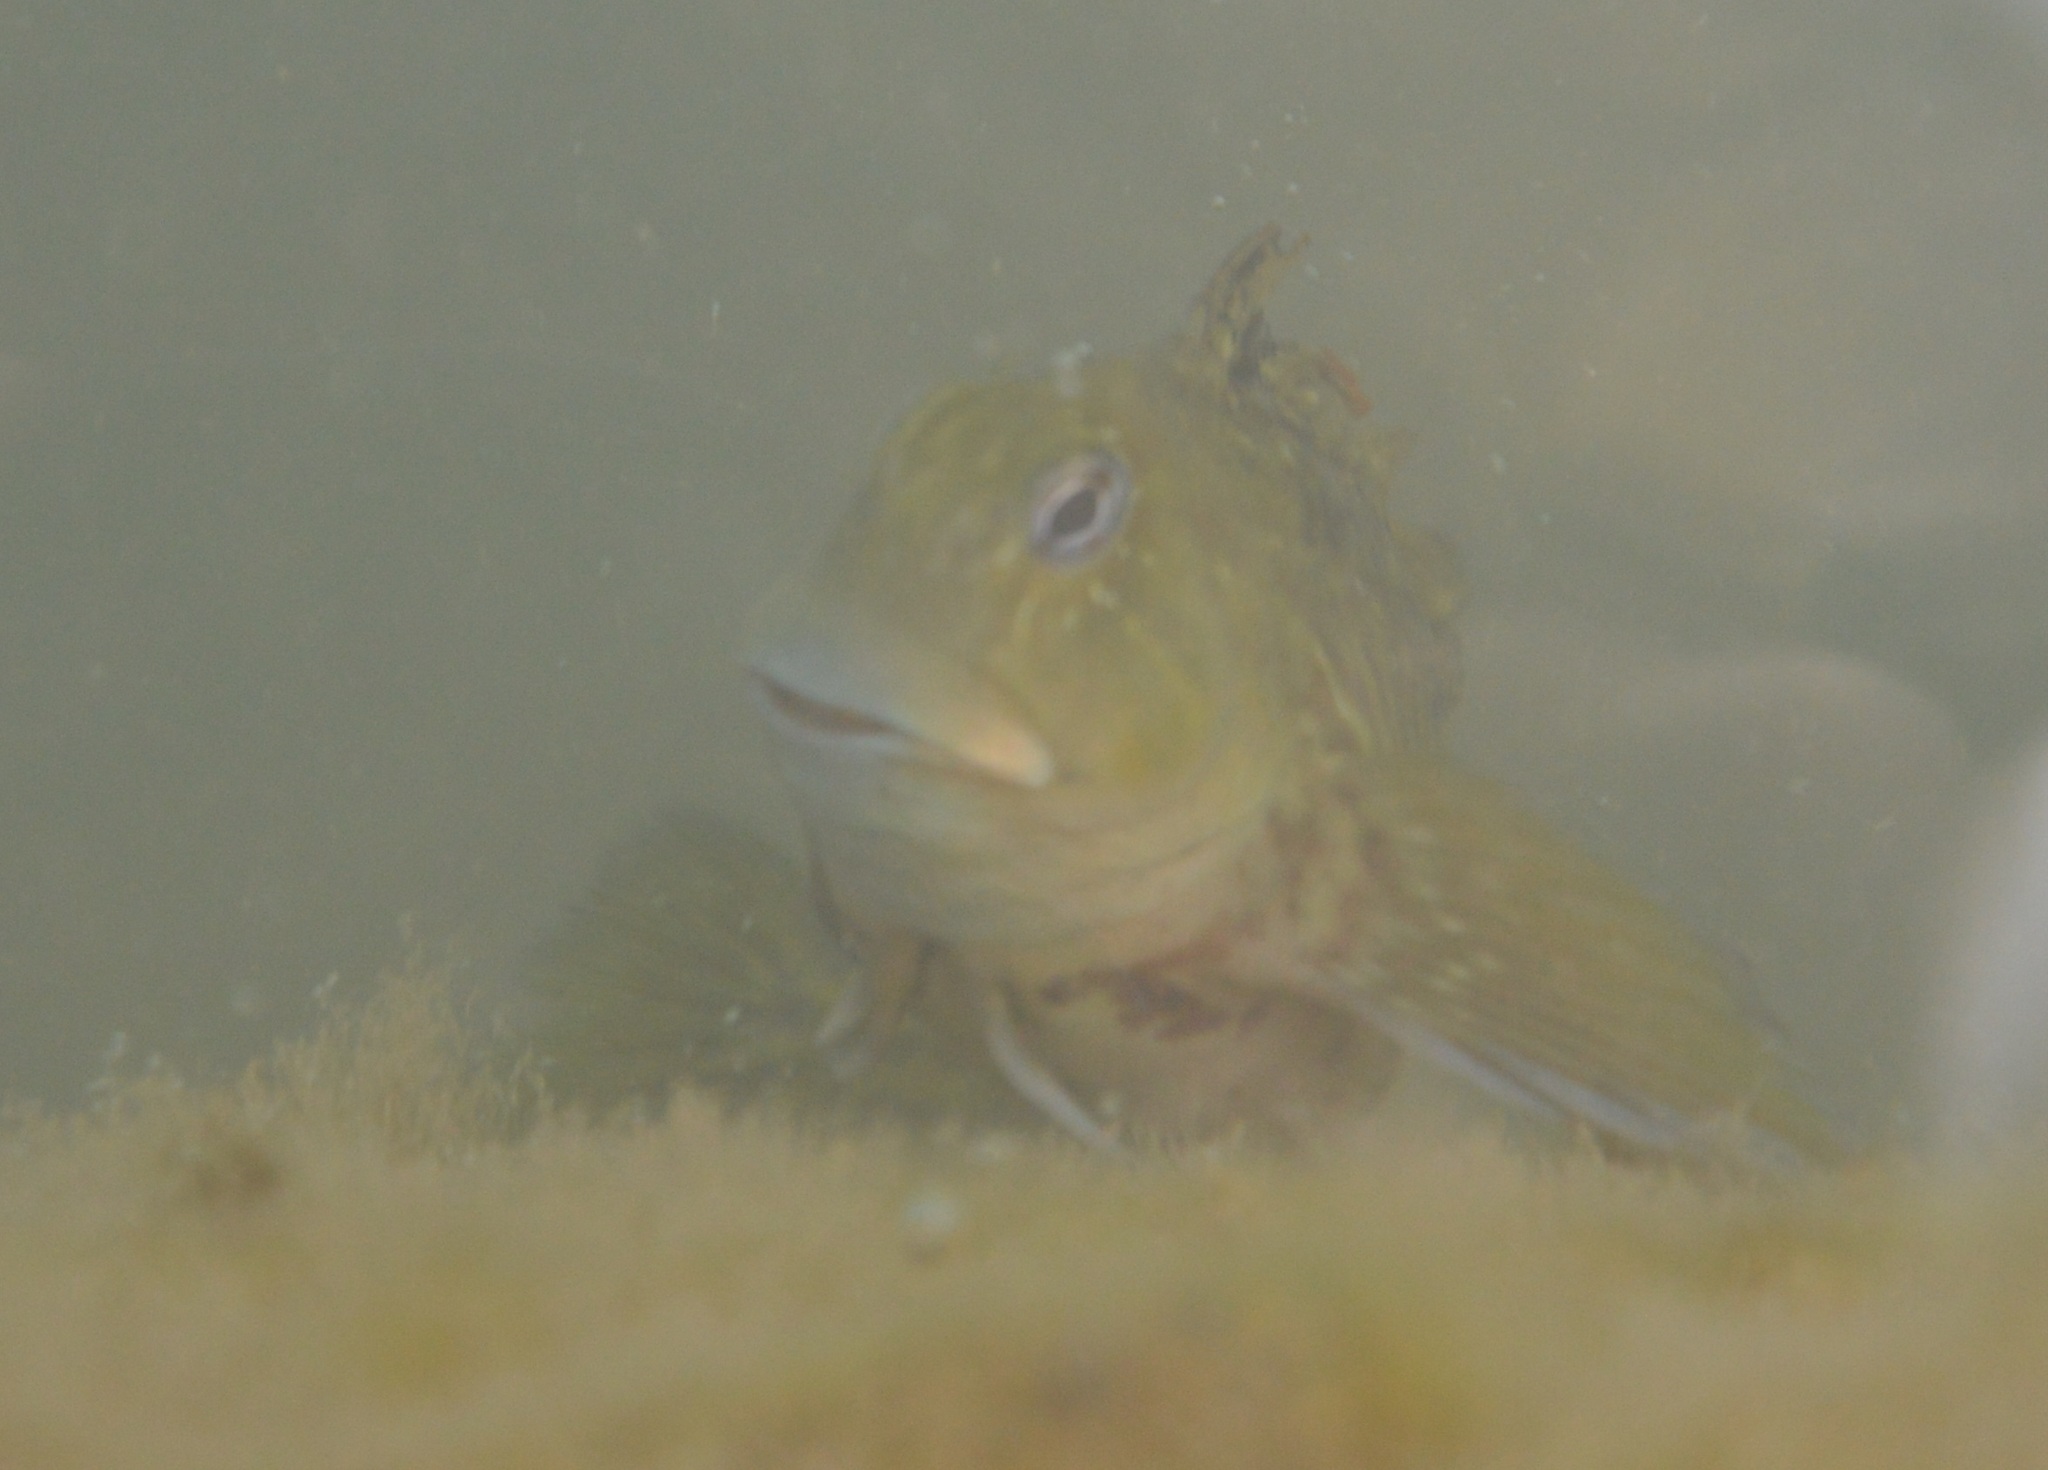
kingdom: Animalia
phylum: Chordata
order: Perciformes
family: Blenniidae
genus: Parablennius
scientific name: Parablennius parvicornis
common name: Rock-pool blenny
